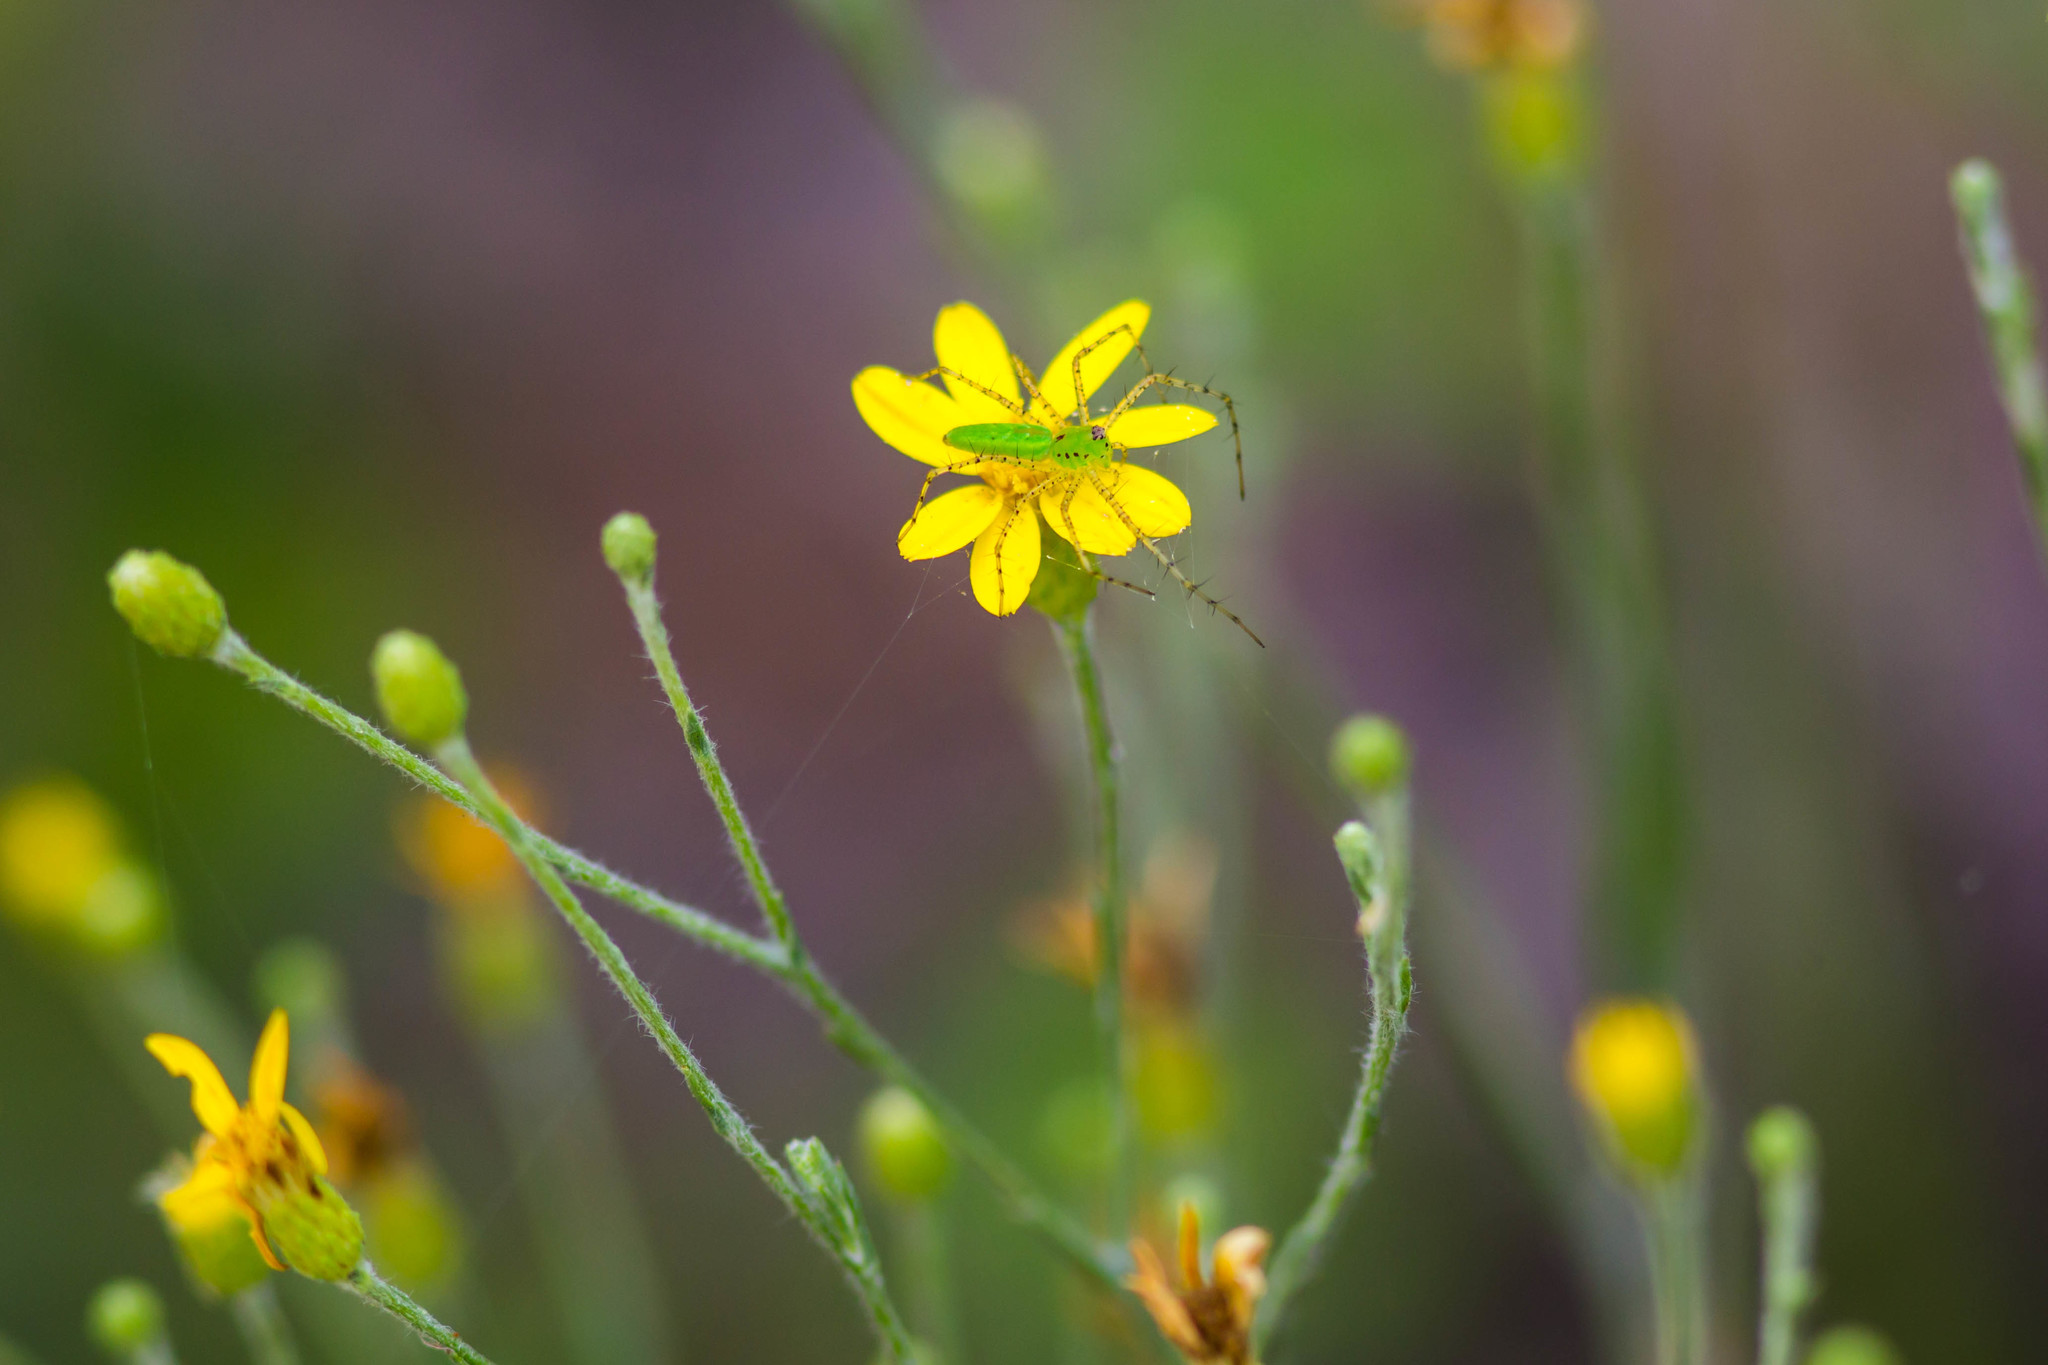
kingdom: Animalia
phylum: Arthropoda
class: Arachnida
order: Araneae
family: Oxyopidae
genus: Peucetia
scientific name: Peucetia viridans
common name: Lynx spiders
